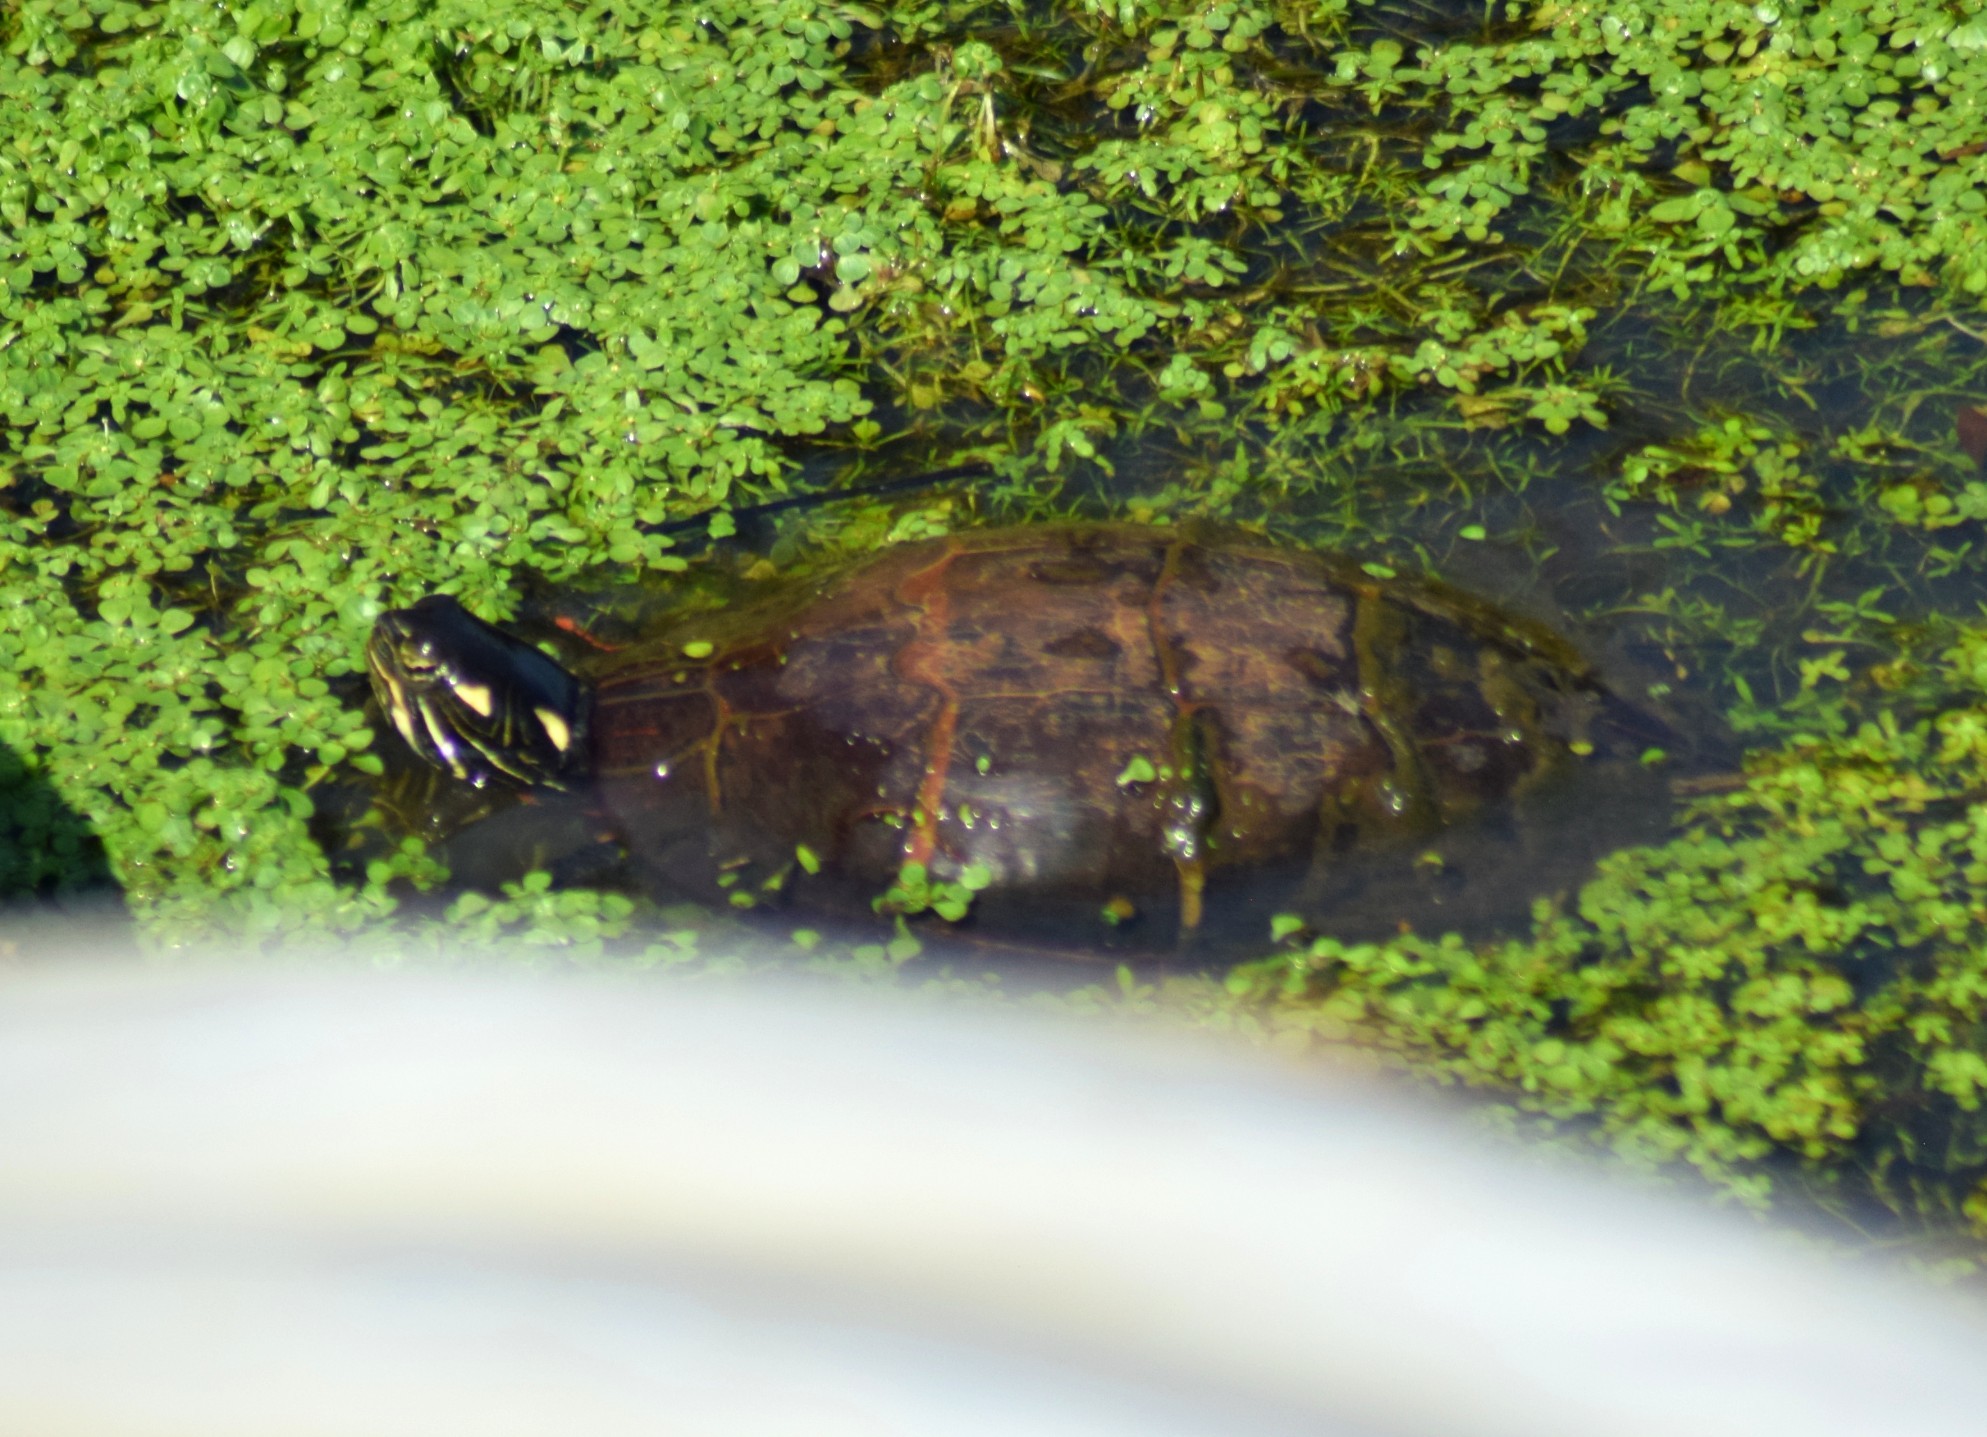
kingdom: Animalia
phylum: Chordata
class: Testudines
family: Emydidae
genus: Chrysemys
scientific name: Chrysemys picta
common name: Painted turtle
